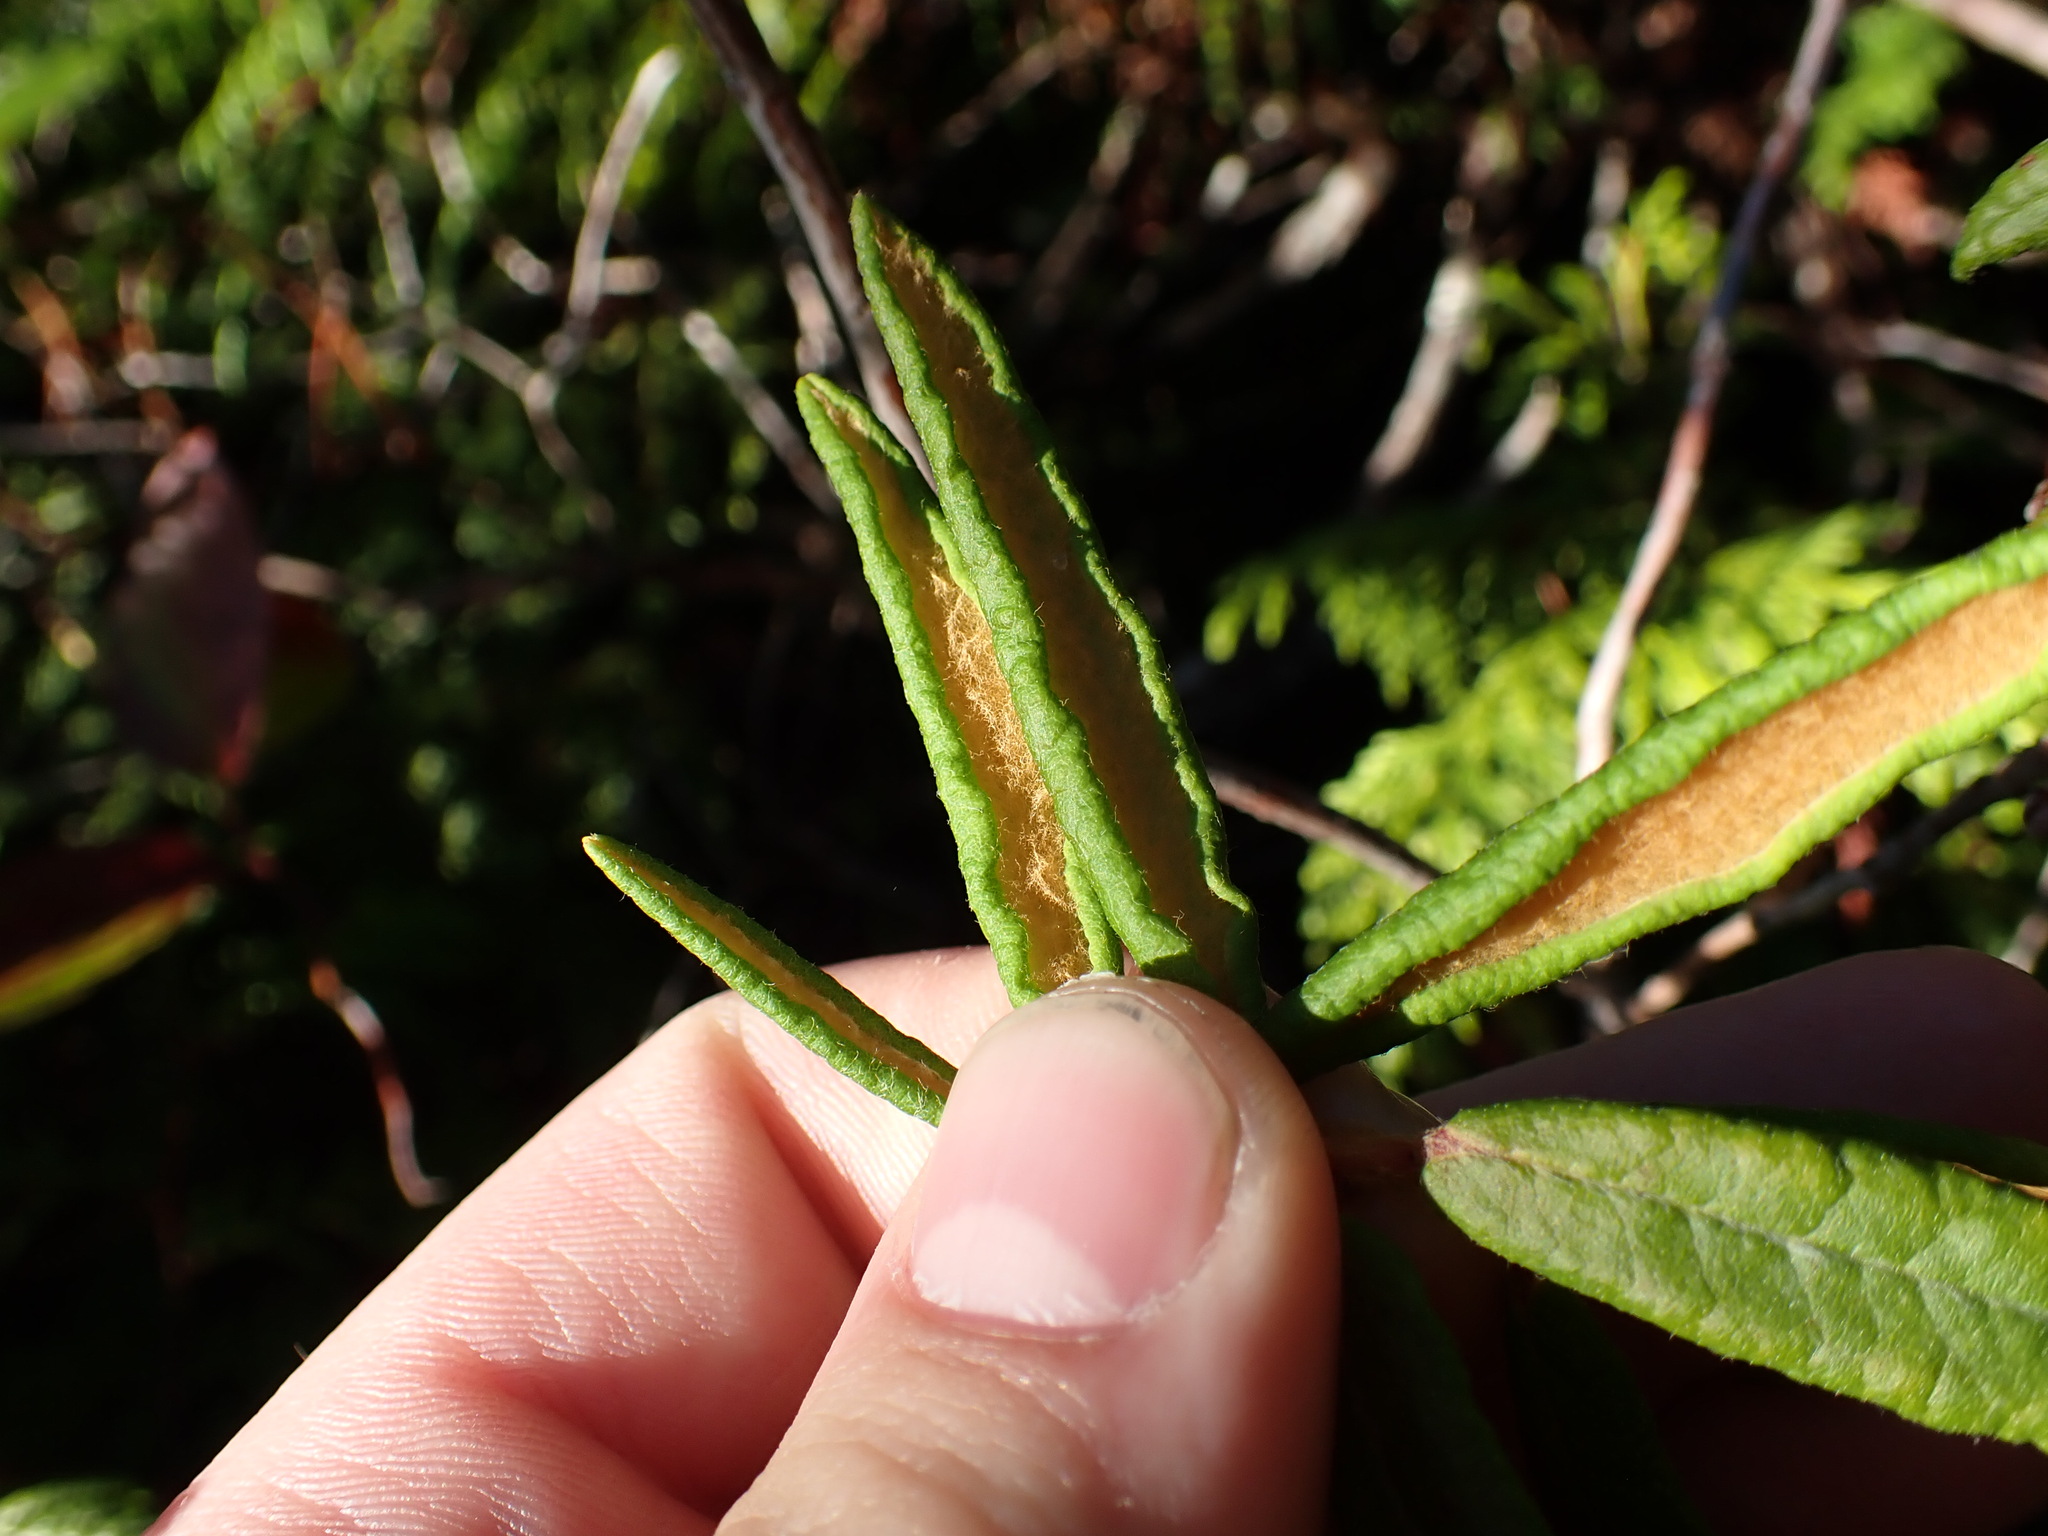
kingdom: Plantae
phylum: Tracheophyta
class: Magnoliopsida
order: Ericales
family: Ericaceae
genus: Rhododendron
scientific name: Rhododendron groenlandicum
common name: Bog labrador tea
